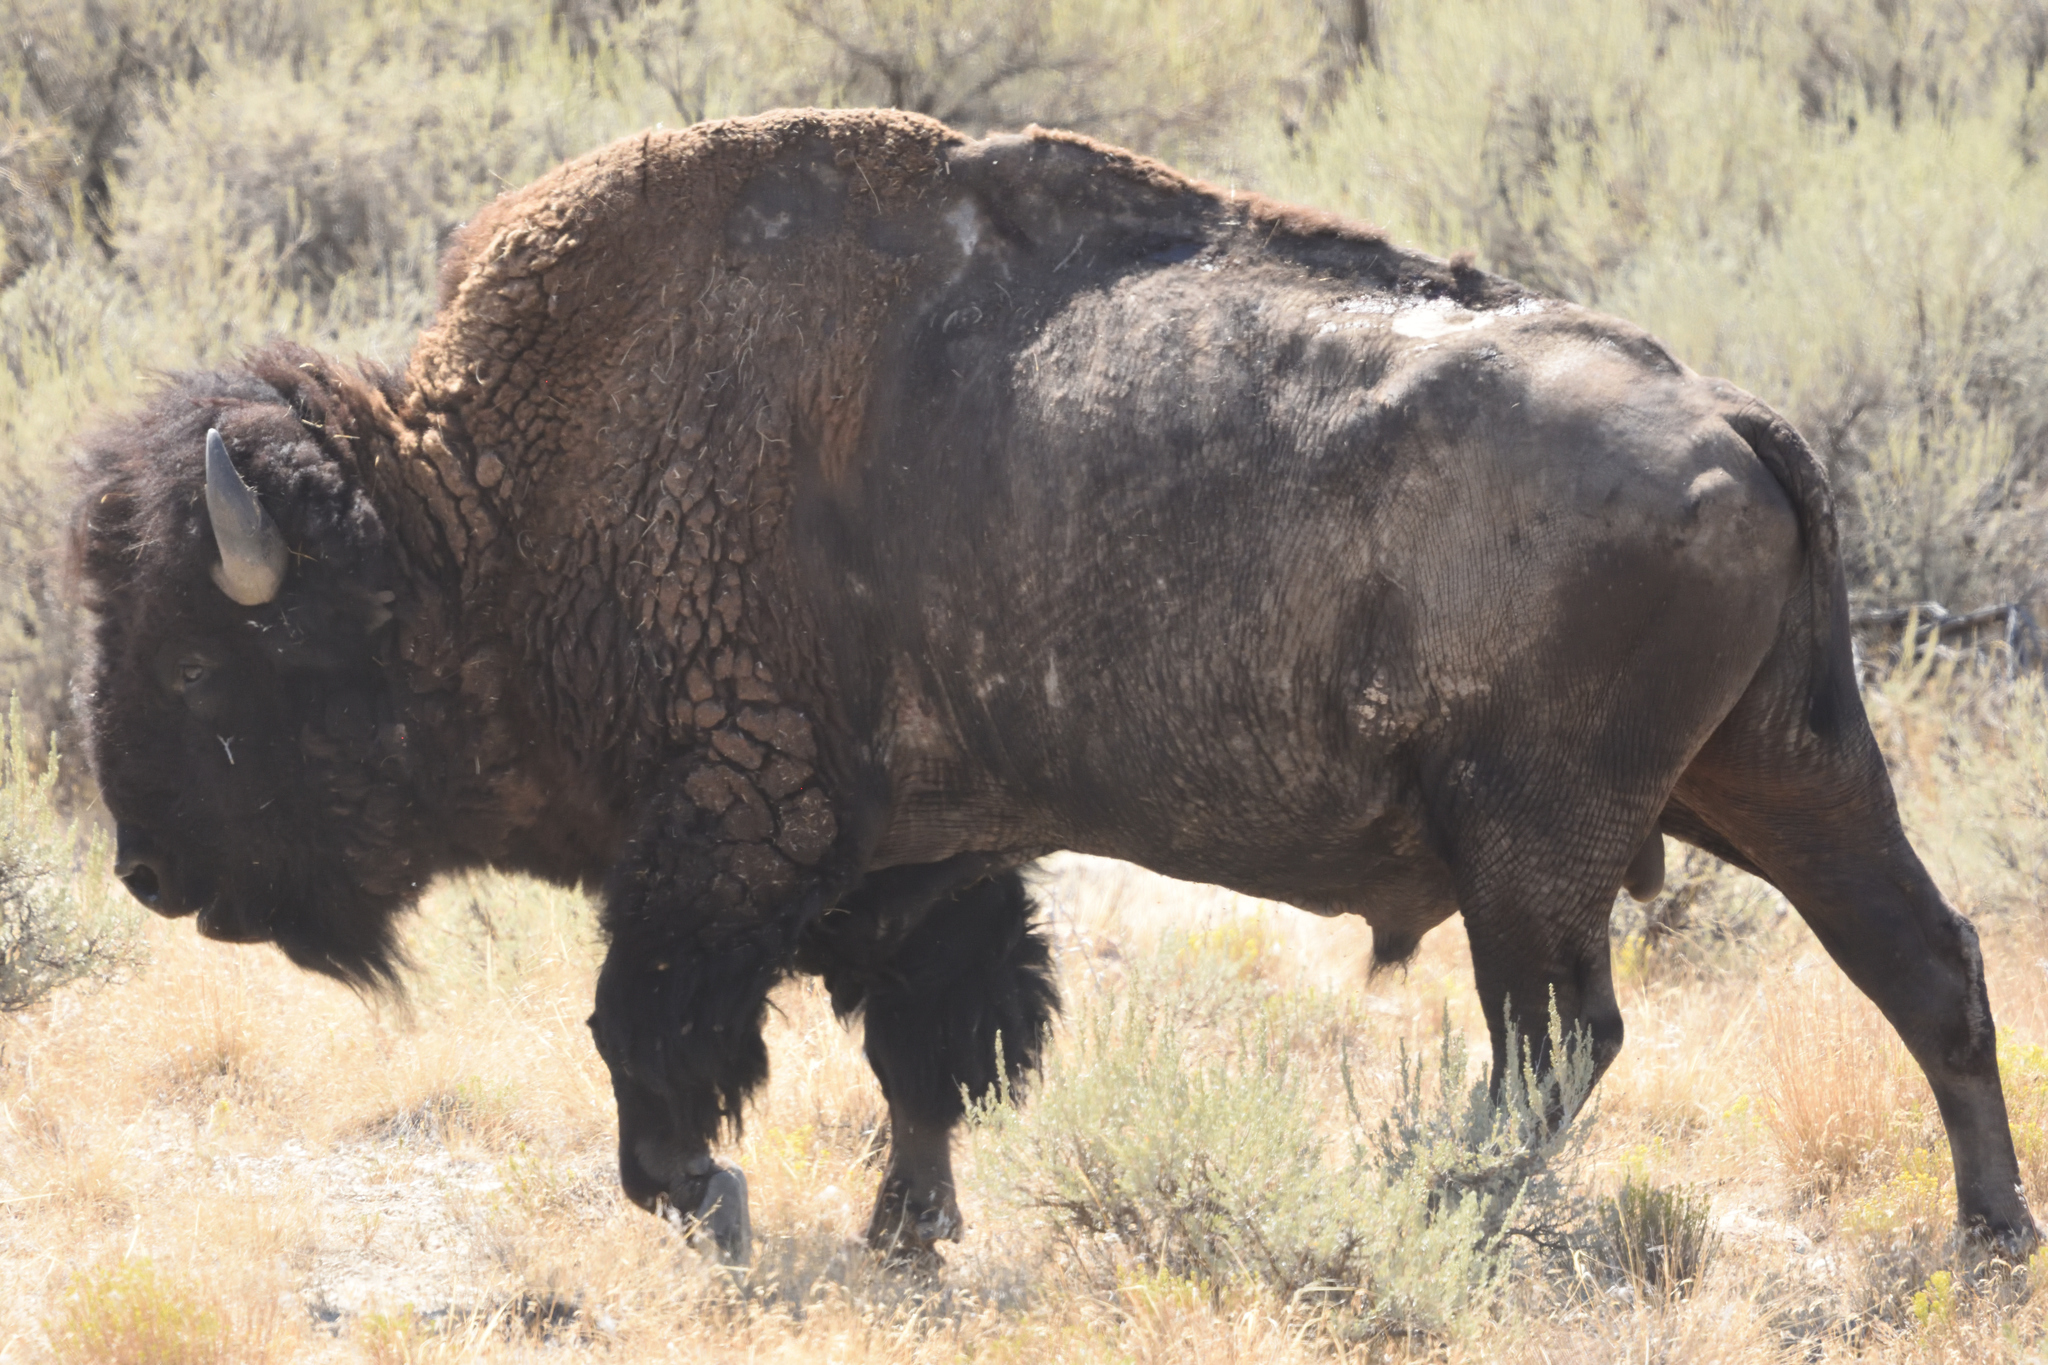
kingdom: Animalia
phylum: Chordata
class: Mammalia
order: Artiodactyla
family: Bovidae
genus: Bison
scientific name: Bison bison
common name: American bison
